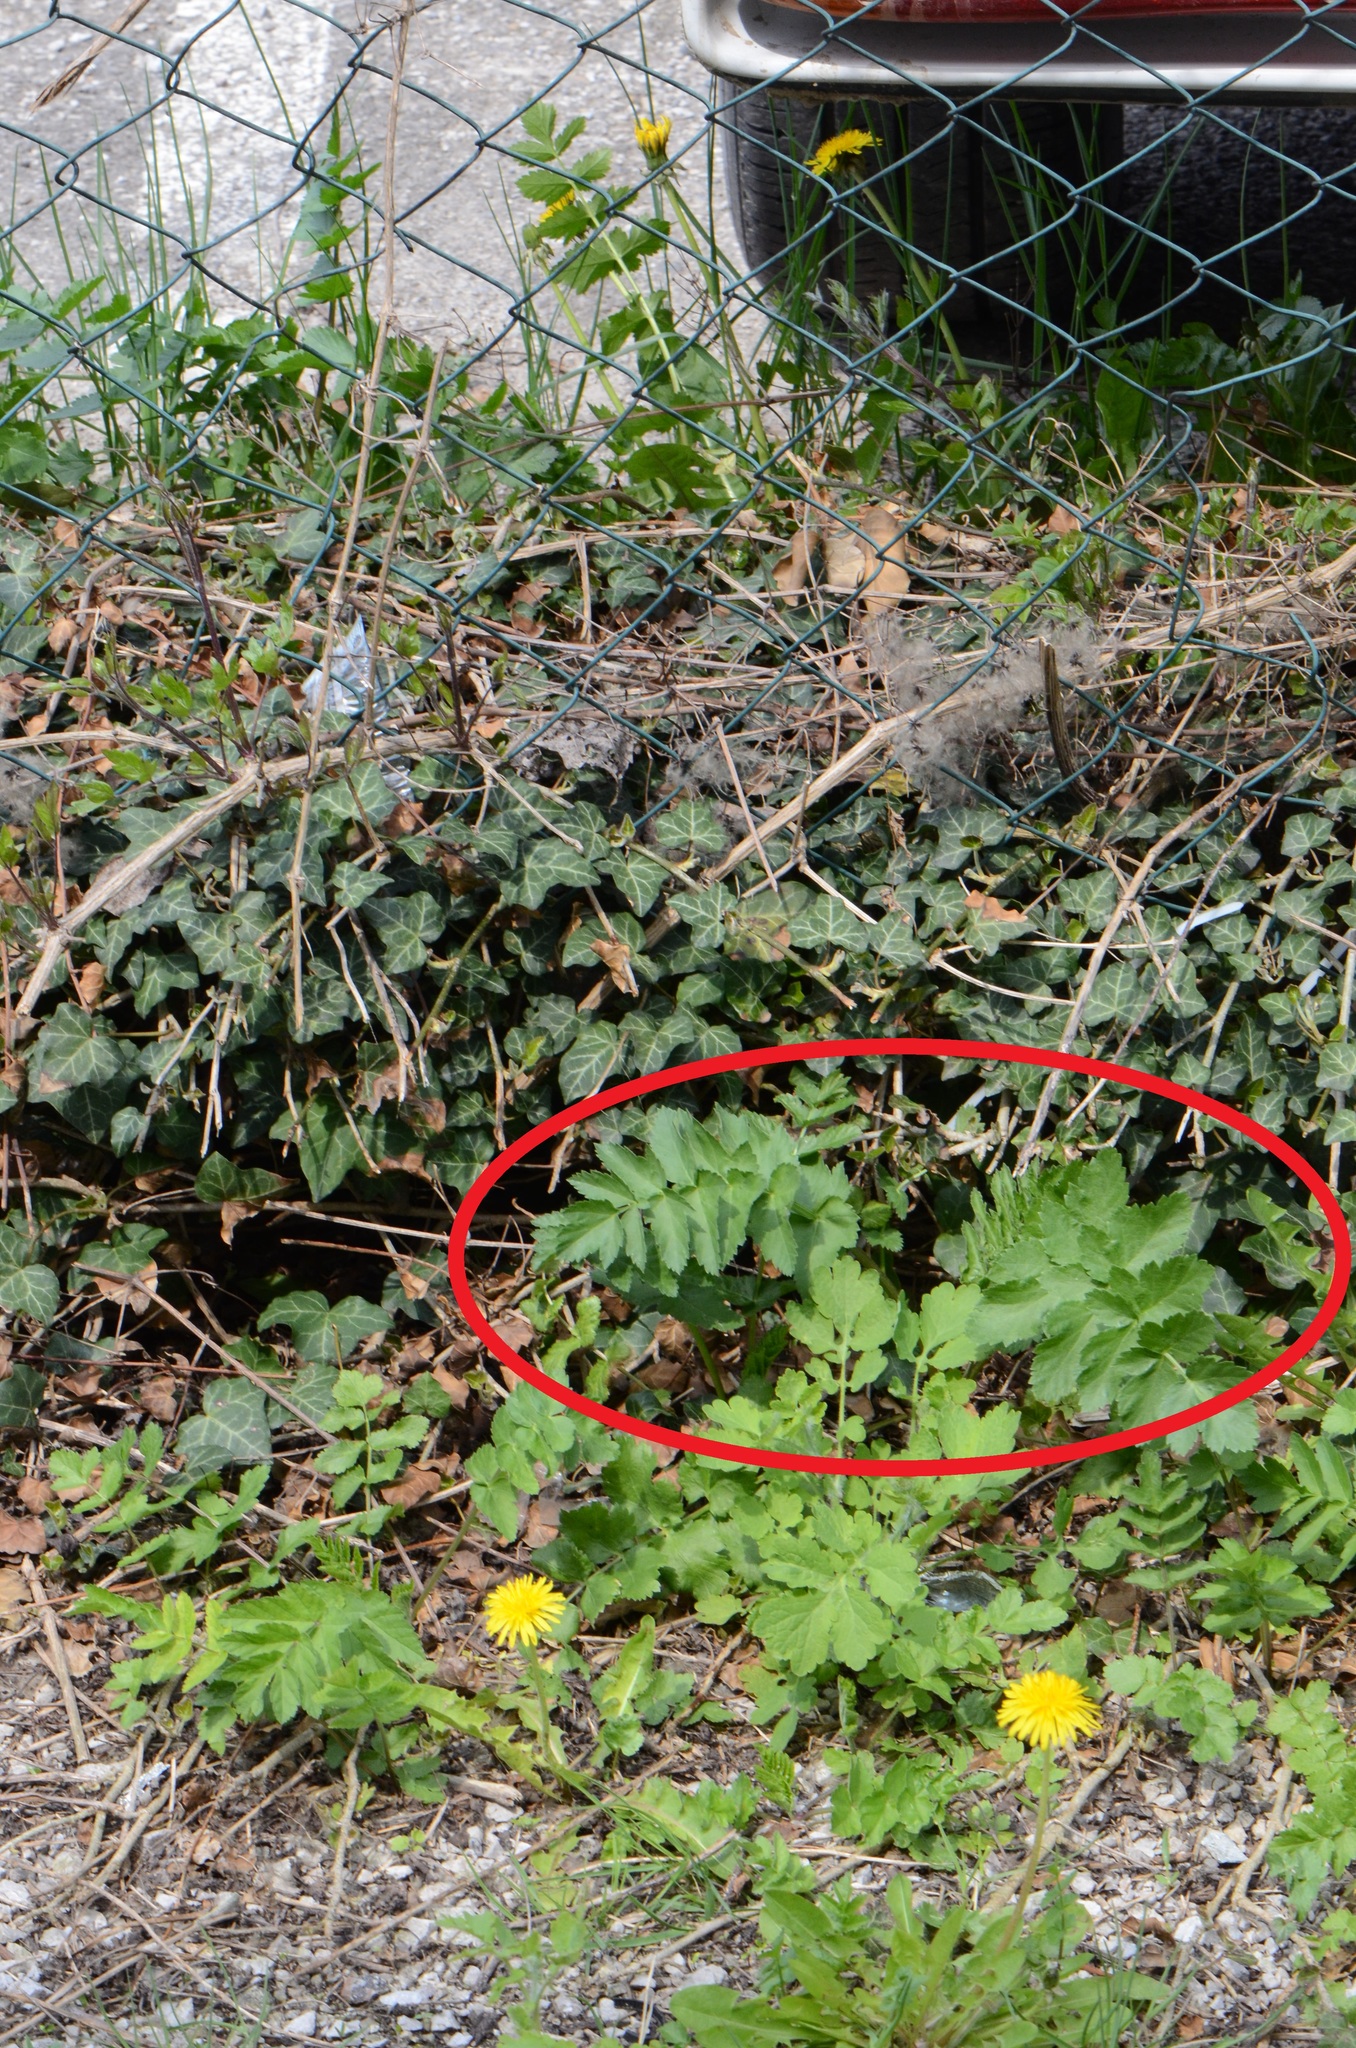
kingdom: Plantae
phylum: Tracheophyta
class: Magnoliopsida
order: Apiales
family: Apiaceae
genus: Pastinaca
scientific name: Pastinaca sativa
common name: Wild parsnip
